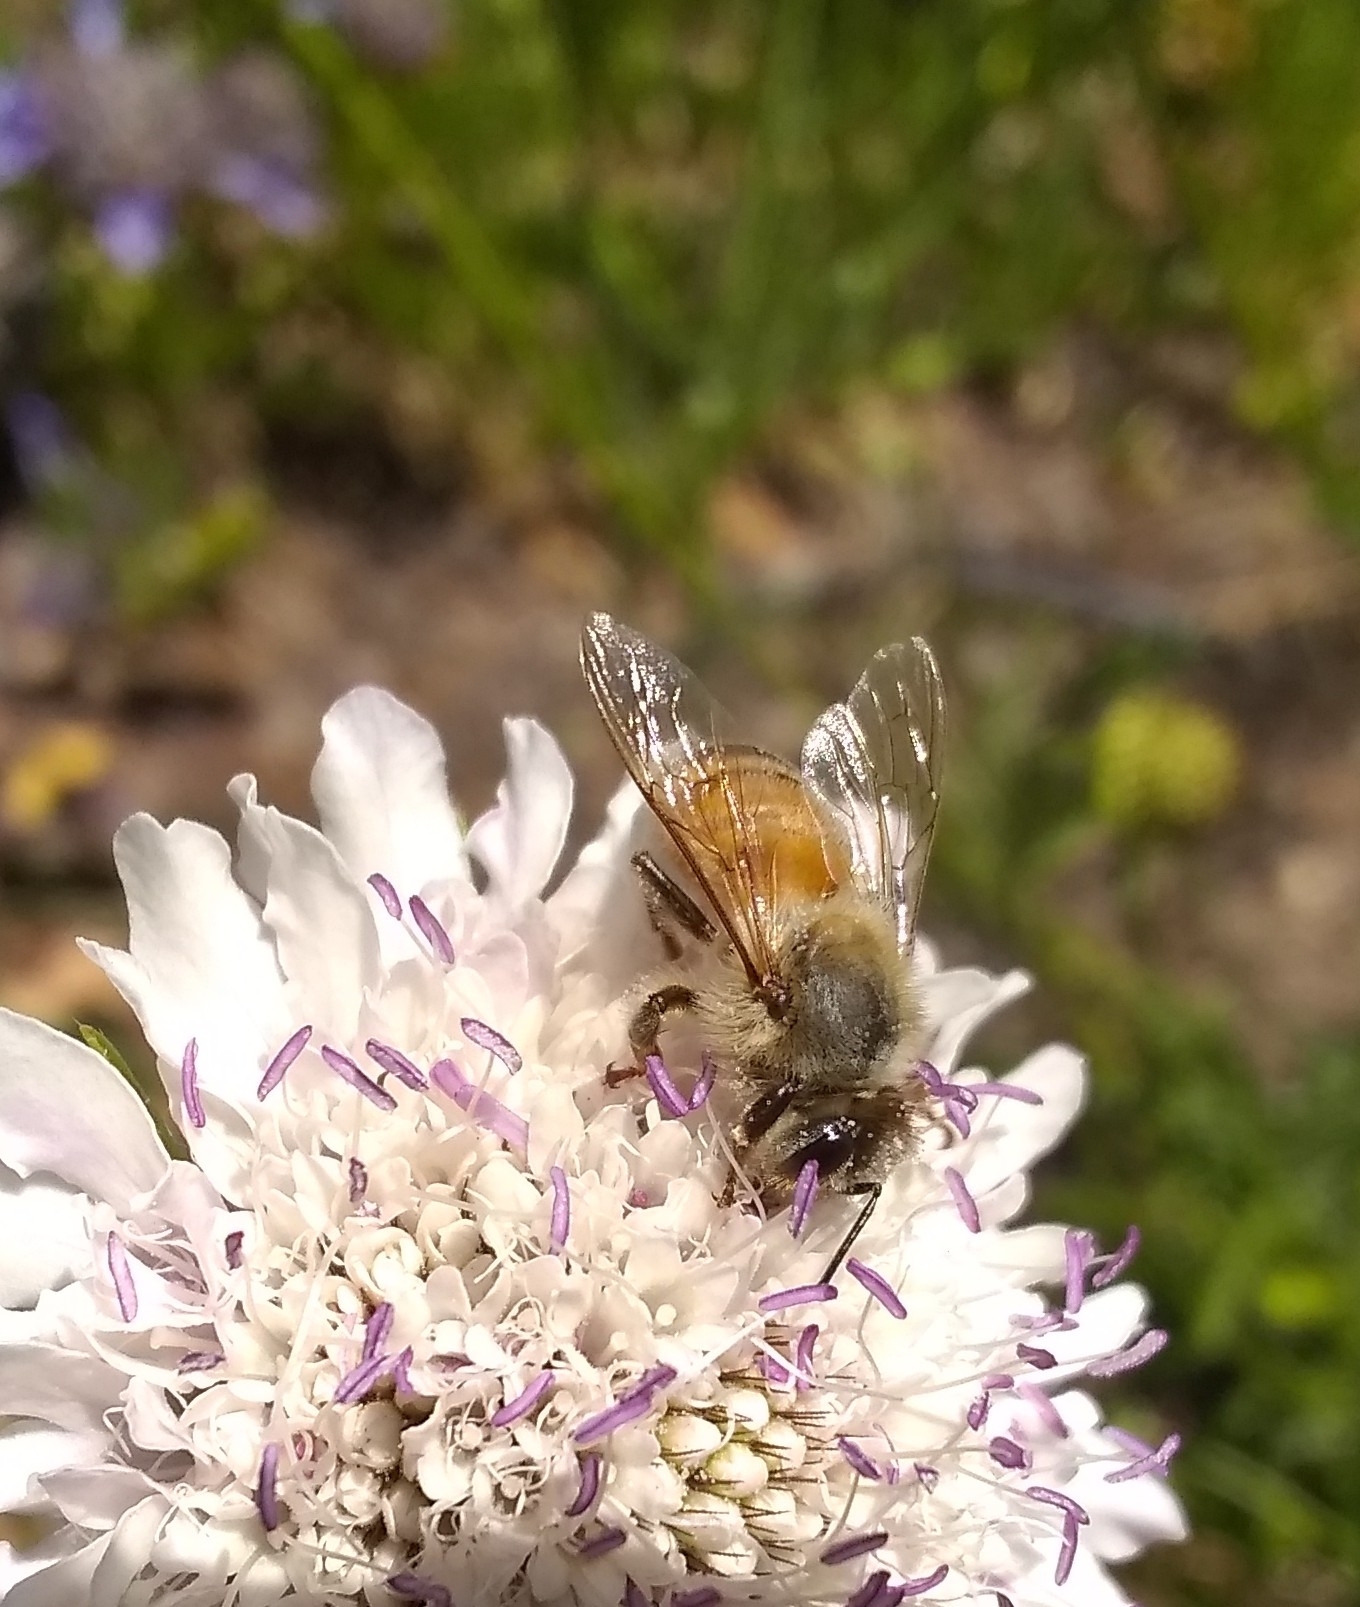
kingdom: Animalia
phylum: Arthropoda
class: Insecta
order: Hymenoptera
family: Apidae
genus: Apis
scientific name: Apis mellifera
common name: Honey bee
